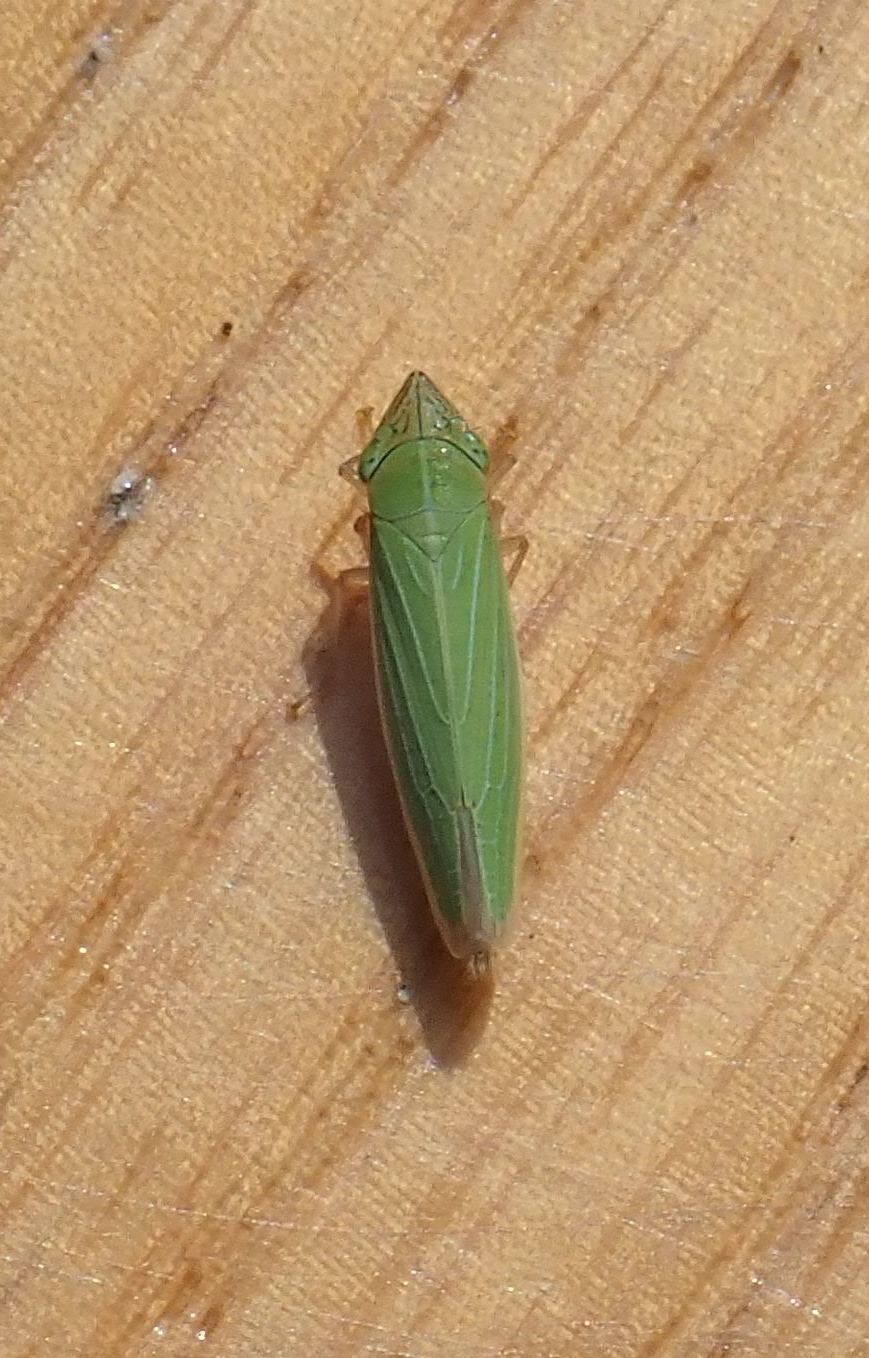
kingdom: Animalia
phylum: Arthropoda
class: Insecta
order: Hemiptera
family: Cicadellidae
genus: Draeculacephala
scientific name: Draeculacephala angulifera
